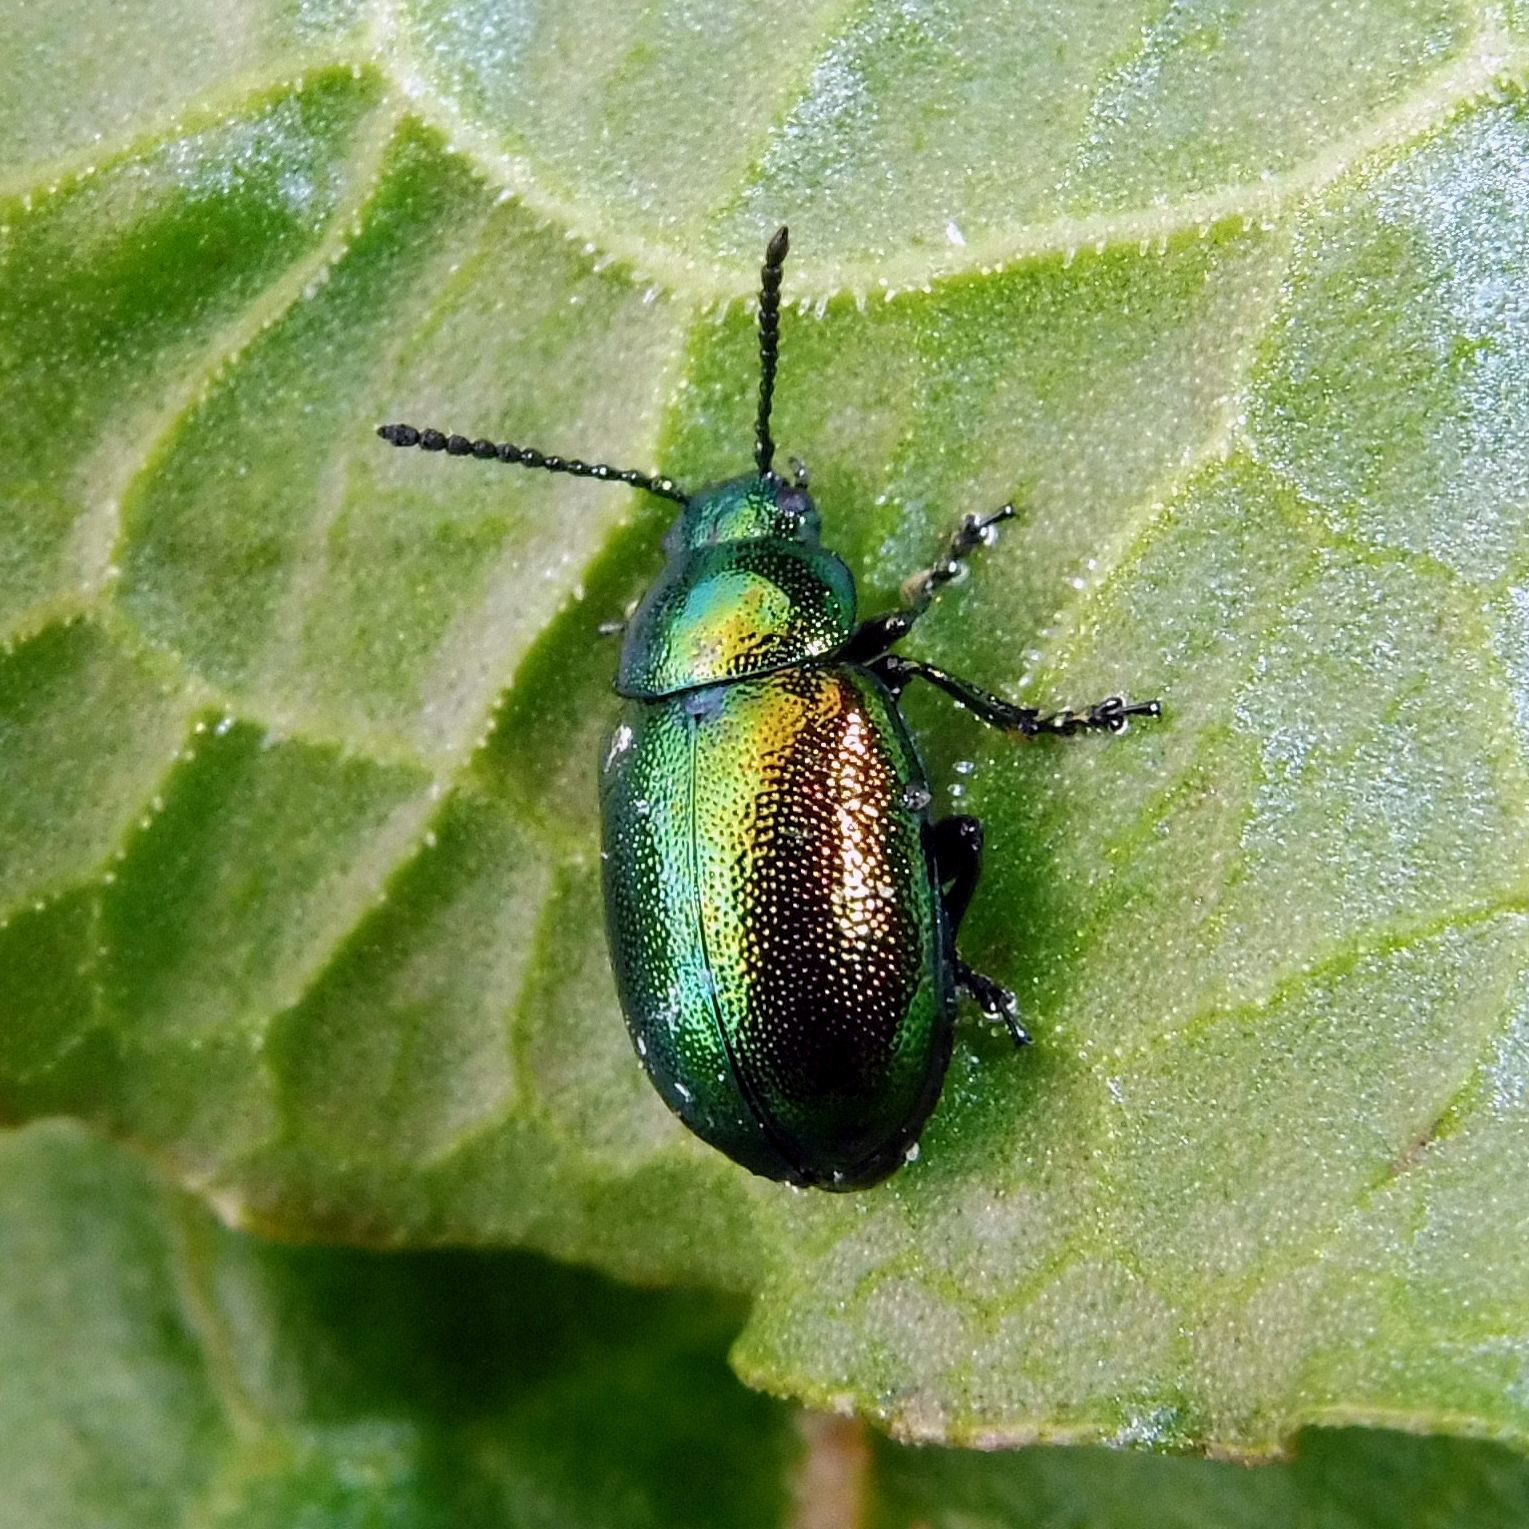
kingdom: Animalia
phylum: Arthropoda
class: Insecta
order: Coleoptera
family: Chrysomelidae
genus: Gastrophysa
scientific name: Gastrophysa viridula
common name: Green dock beetle
